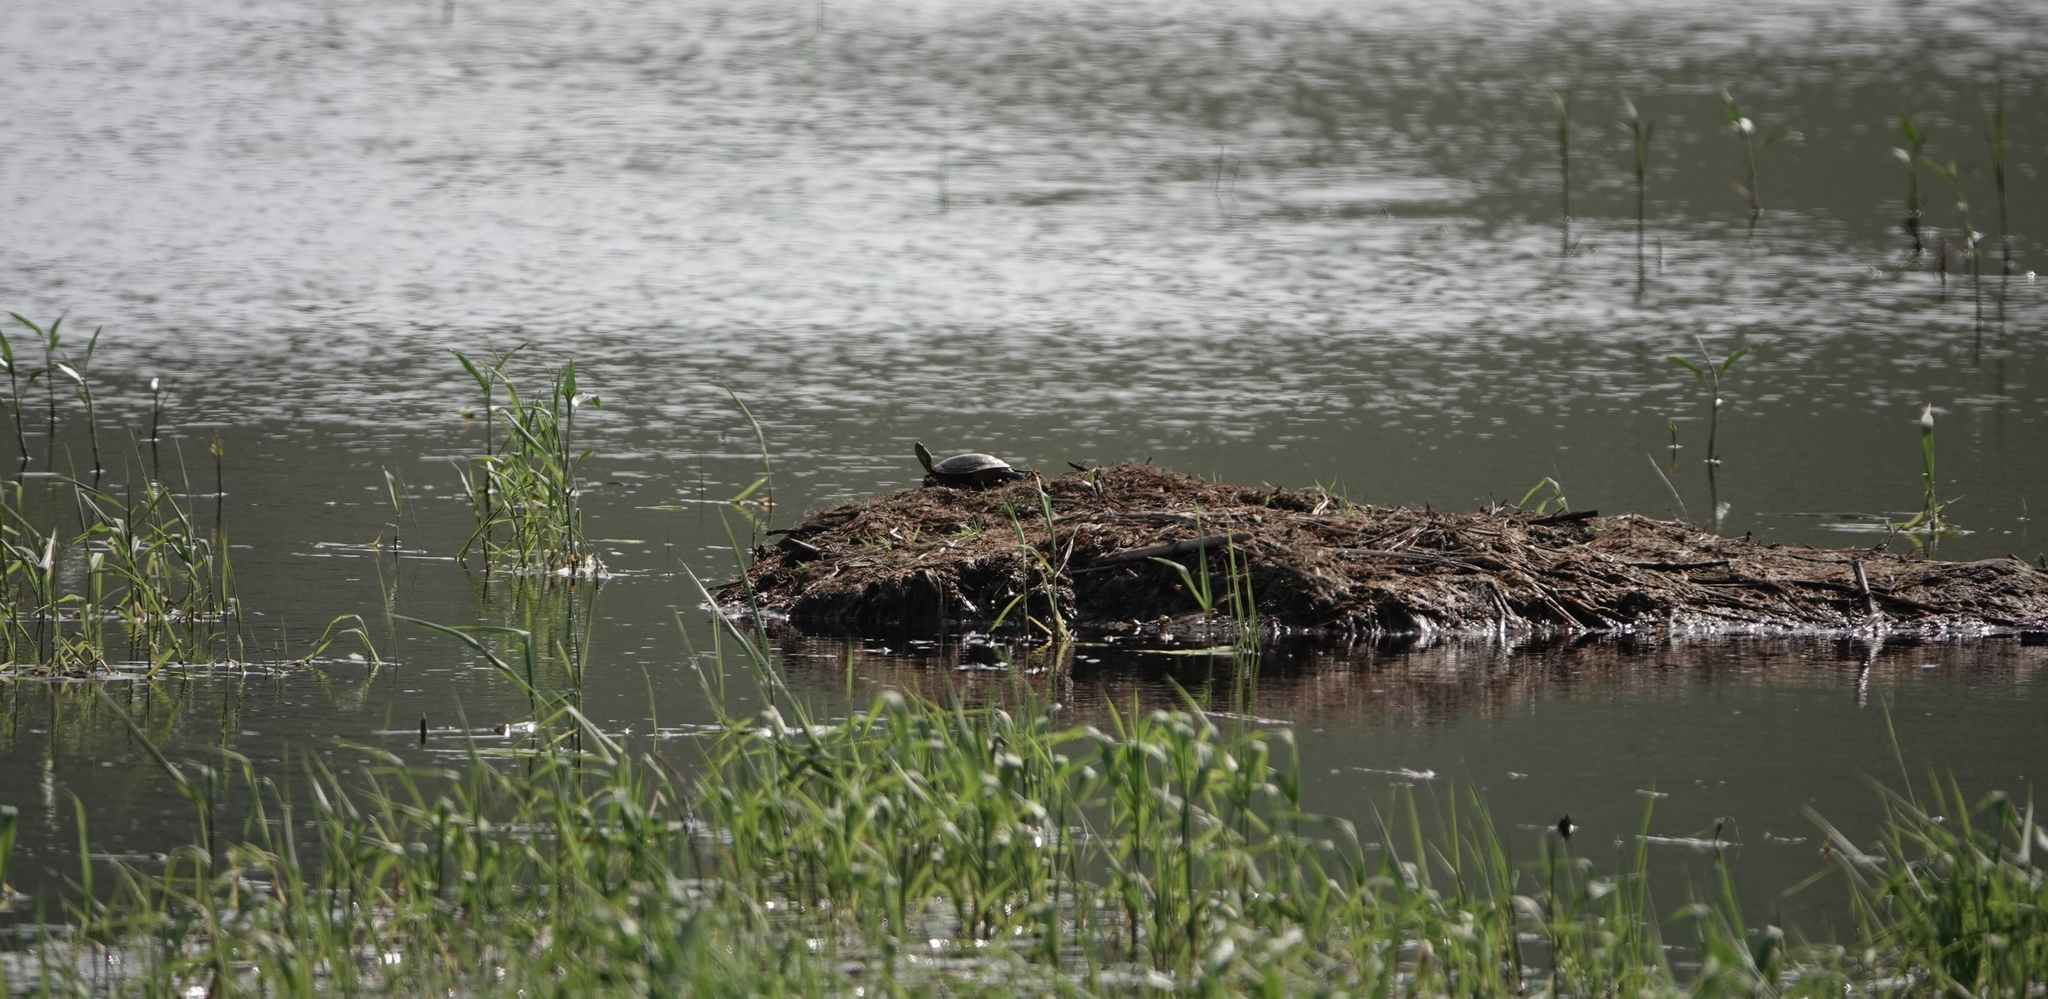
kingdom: Animalia
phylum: Chordata
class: Testudines
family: Emydidae
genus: Chrysemys
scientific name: Chrysemys picta
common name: Painted turtle
